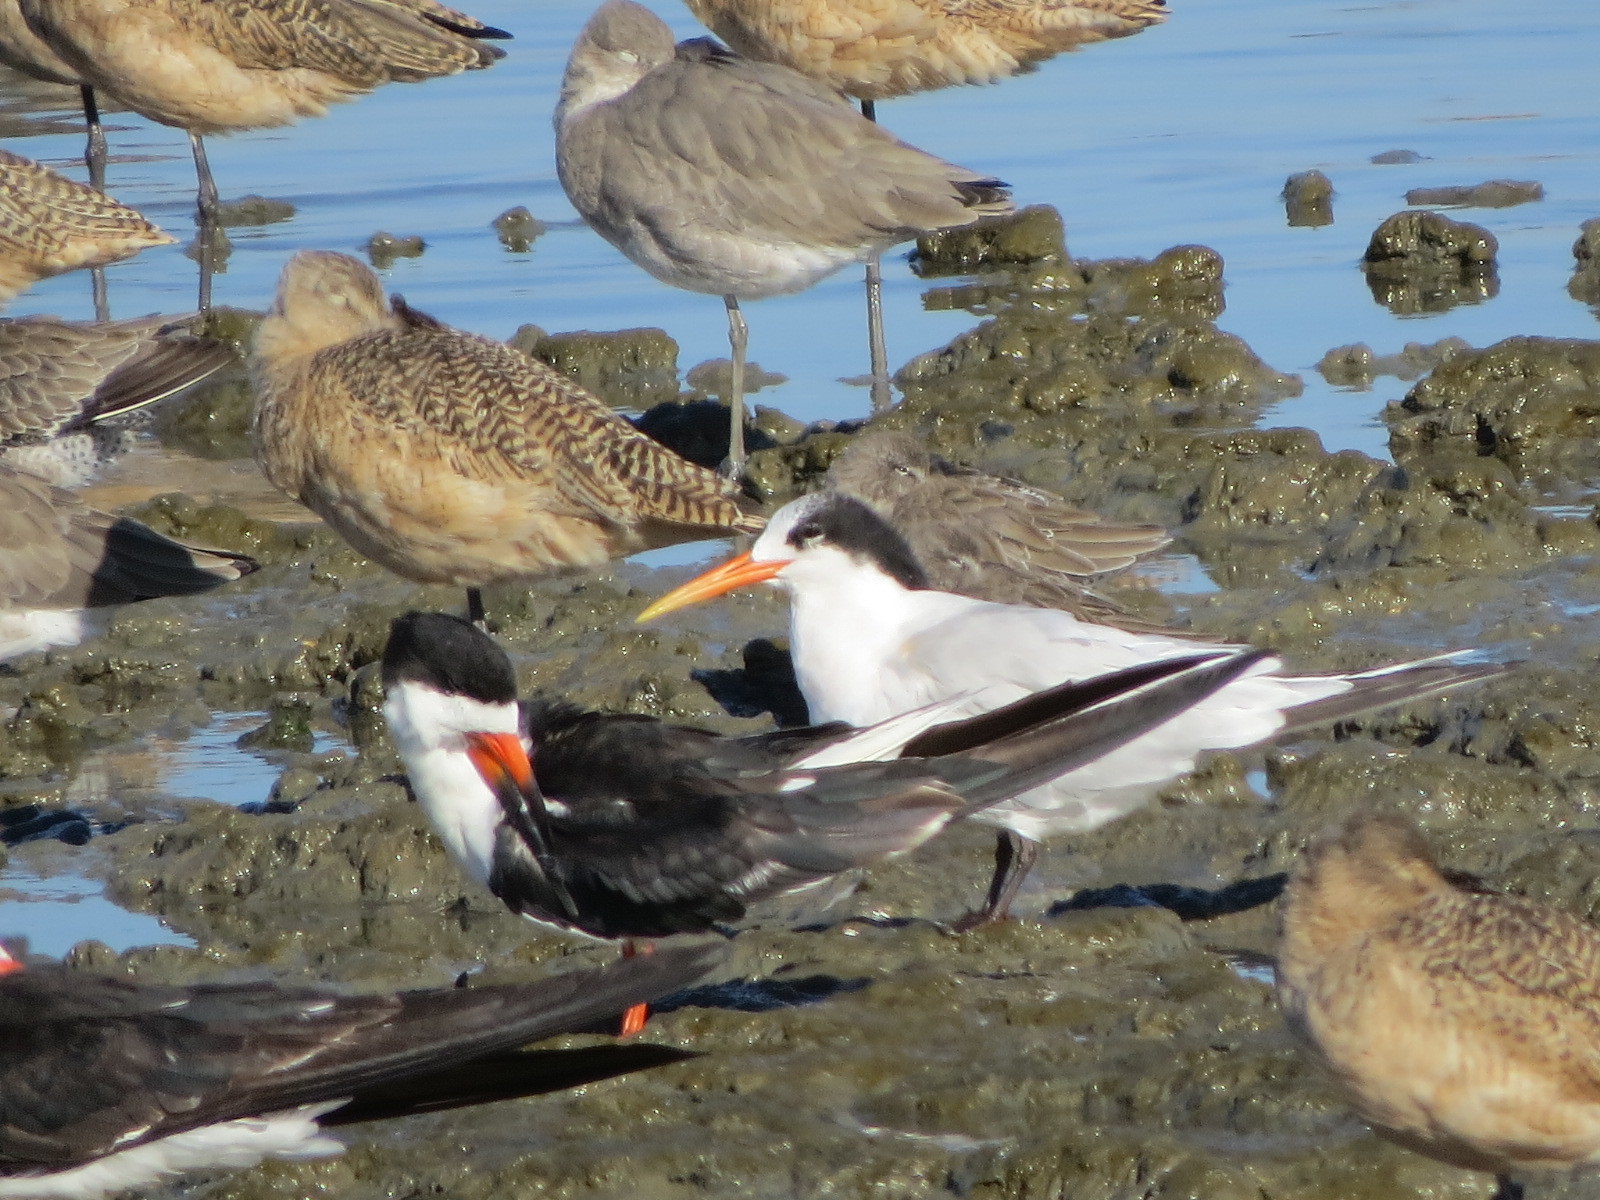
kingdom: Animalia
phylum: Chordata
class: Aves
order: Charadriiformes
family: Laridae
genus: Thalasseus
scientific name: Thalasseus elegans
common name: Elegant tern
